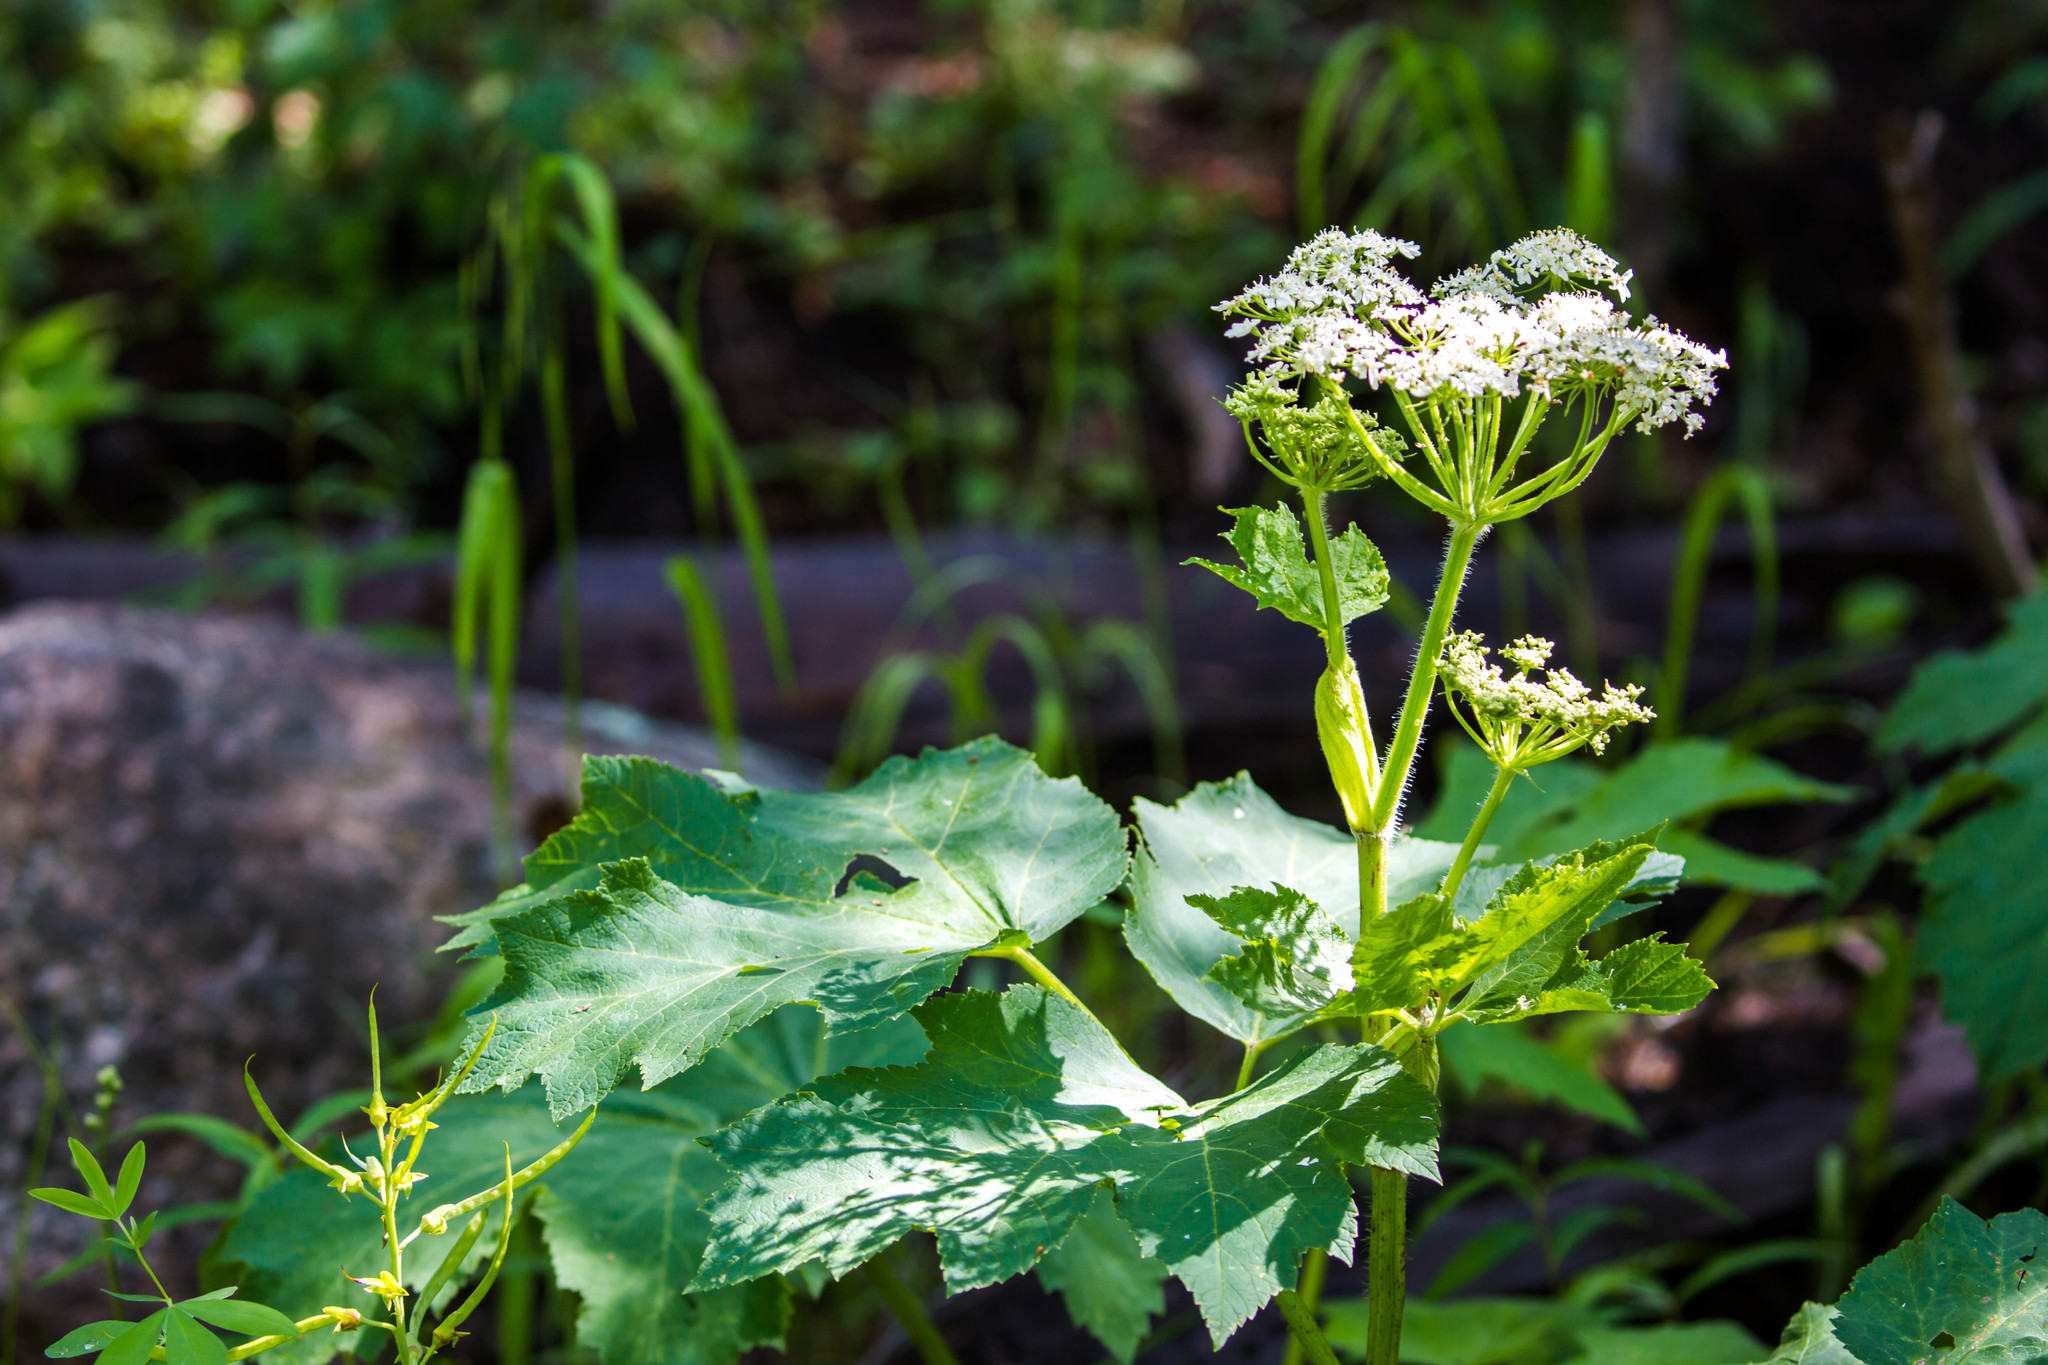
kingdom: Plantae
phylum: Tracheophyta
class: Magnoliopsida
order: Apiales
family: Apiaceae
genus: Heracleum
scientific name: Heracleum maximum
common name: American cow parsnip
